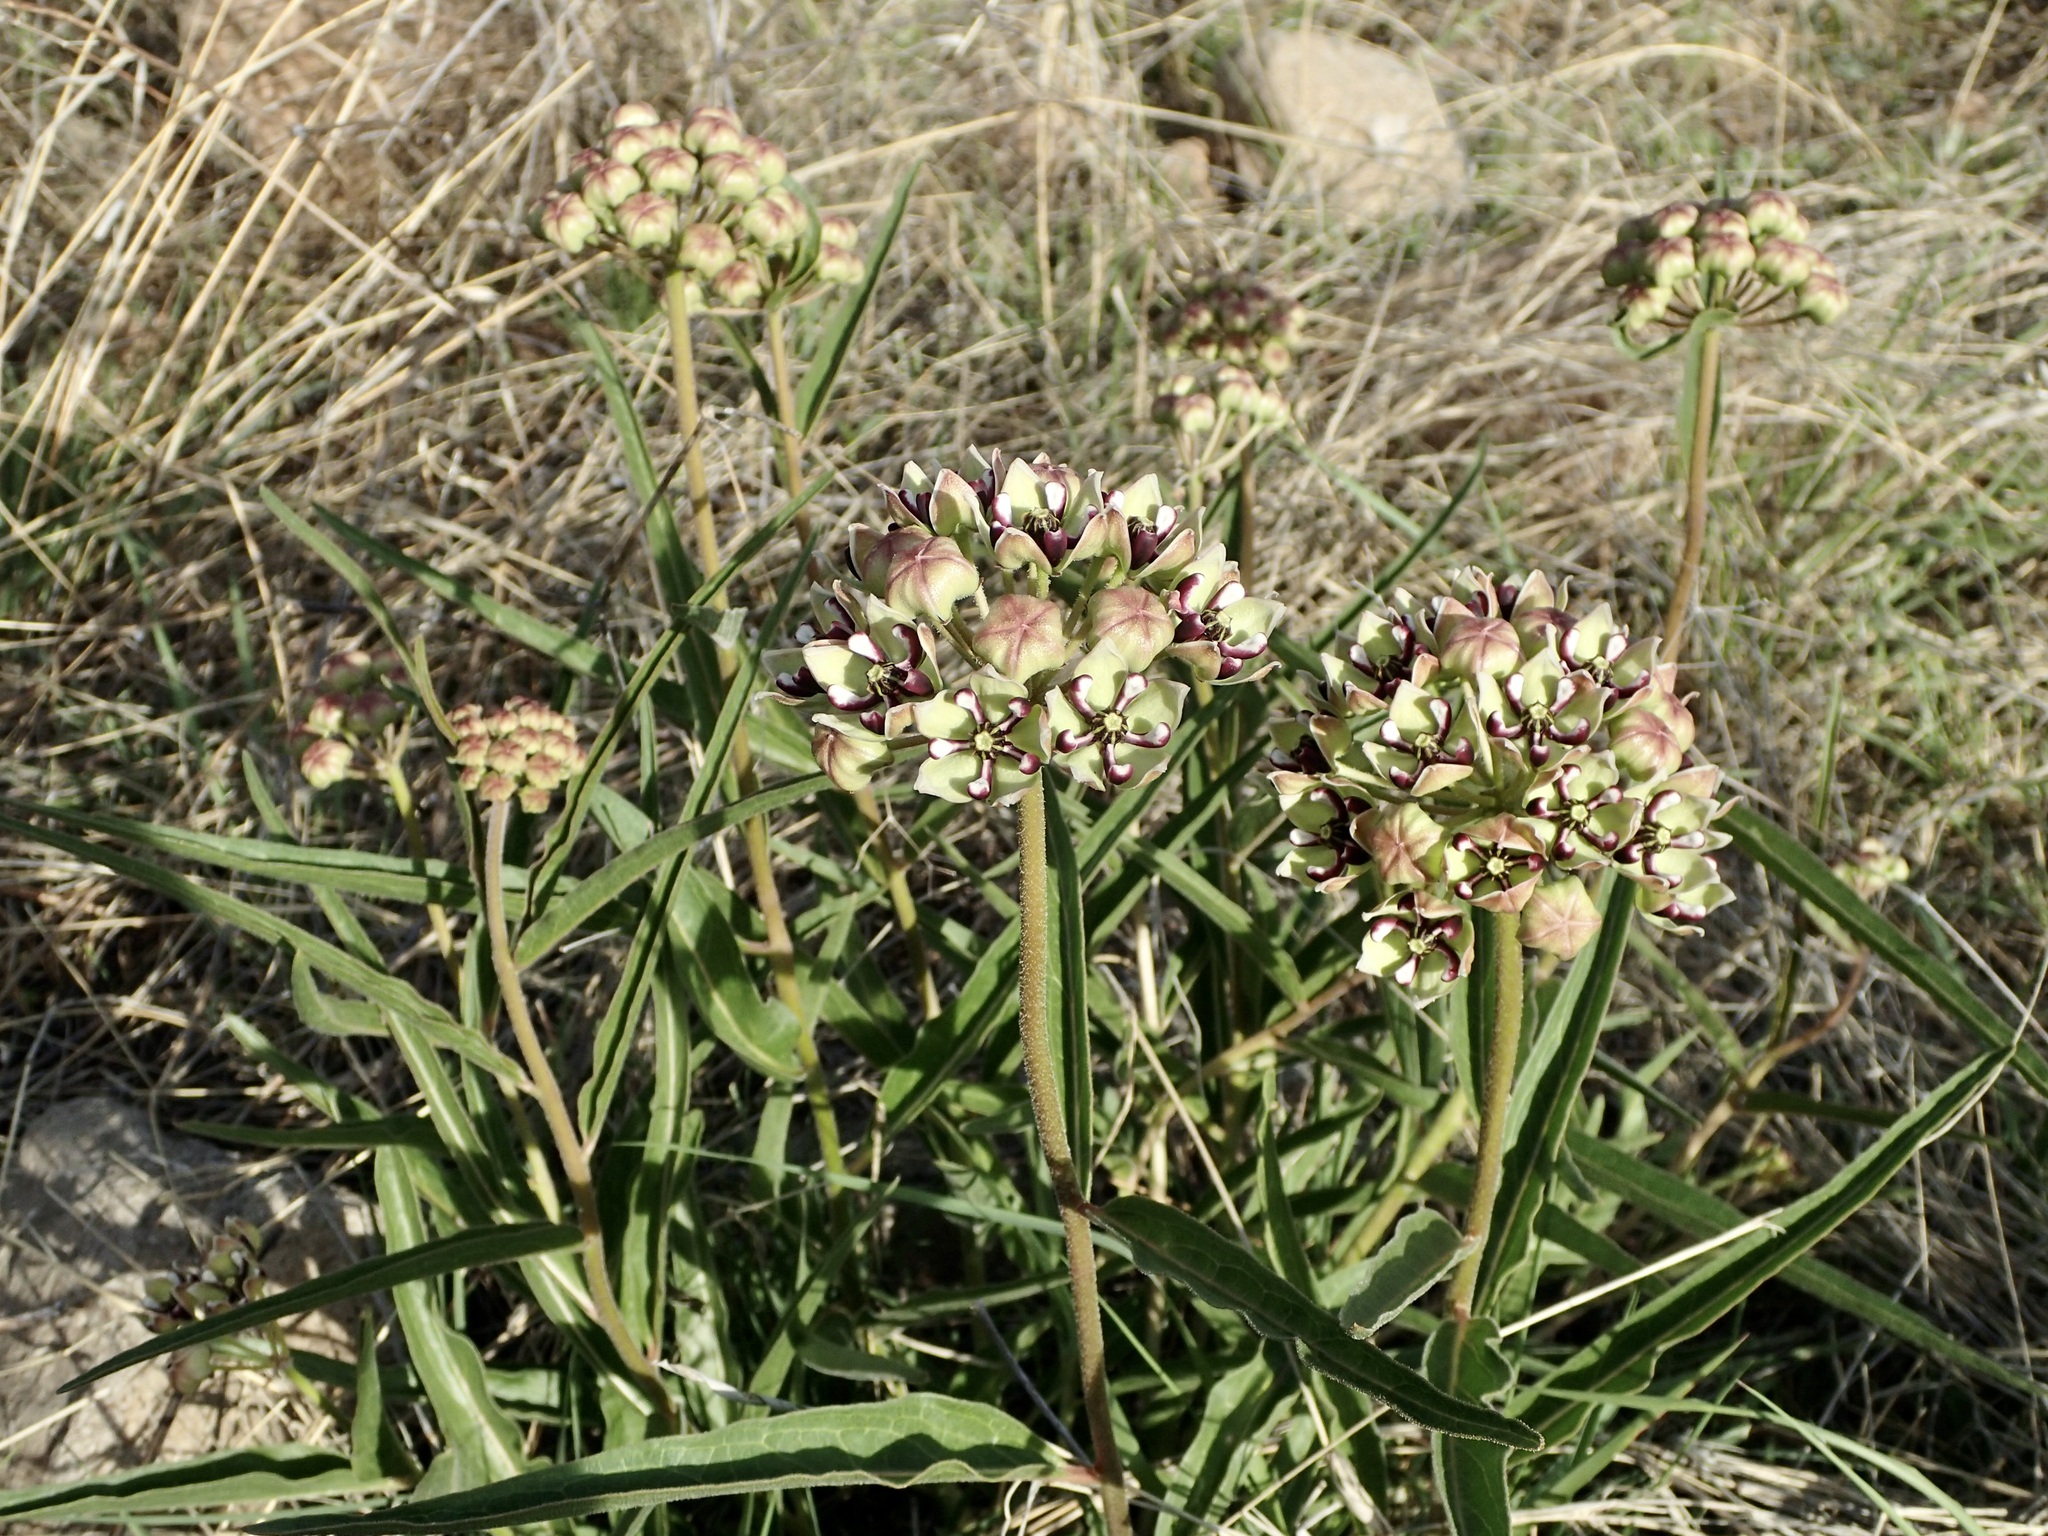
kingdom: Plantae
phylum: Tracheophyta
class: Magnoliopsida
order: Gentianales
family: Apocynaceae
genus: Asclepias
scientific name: Asclepias asperula
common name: Antelope horns
